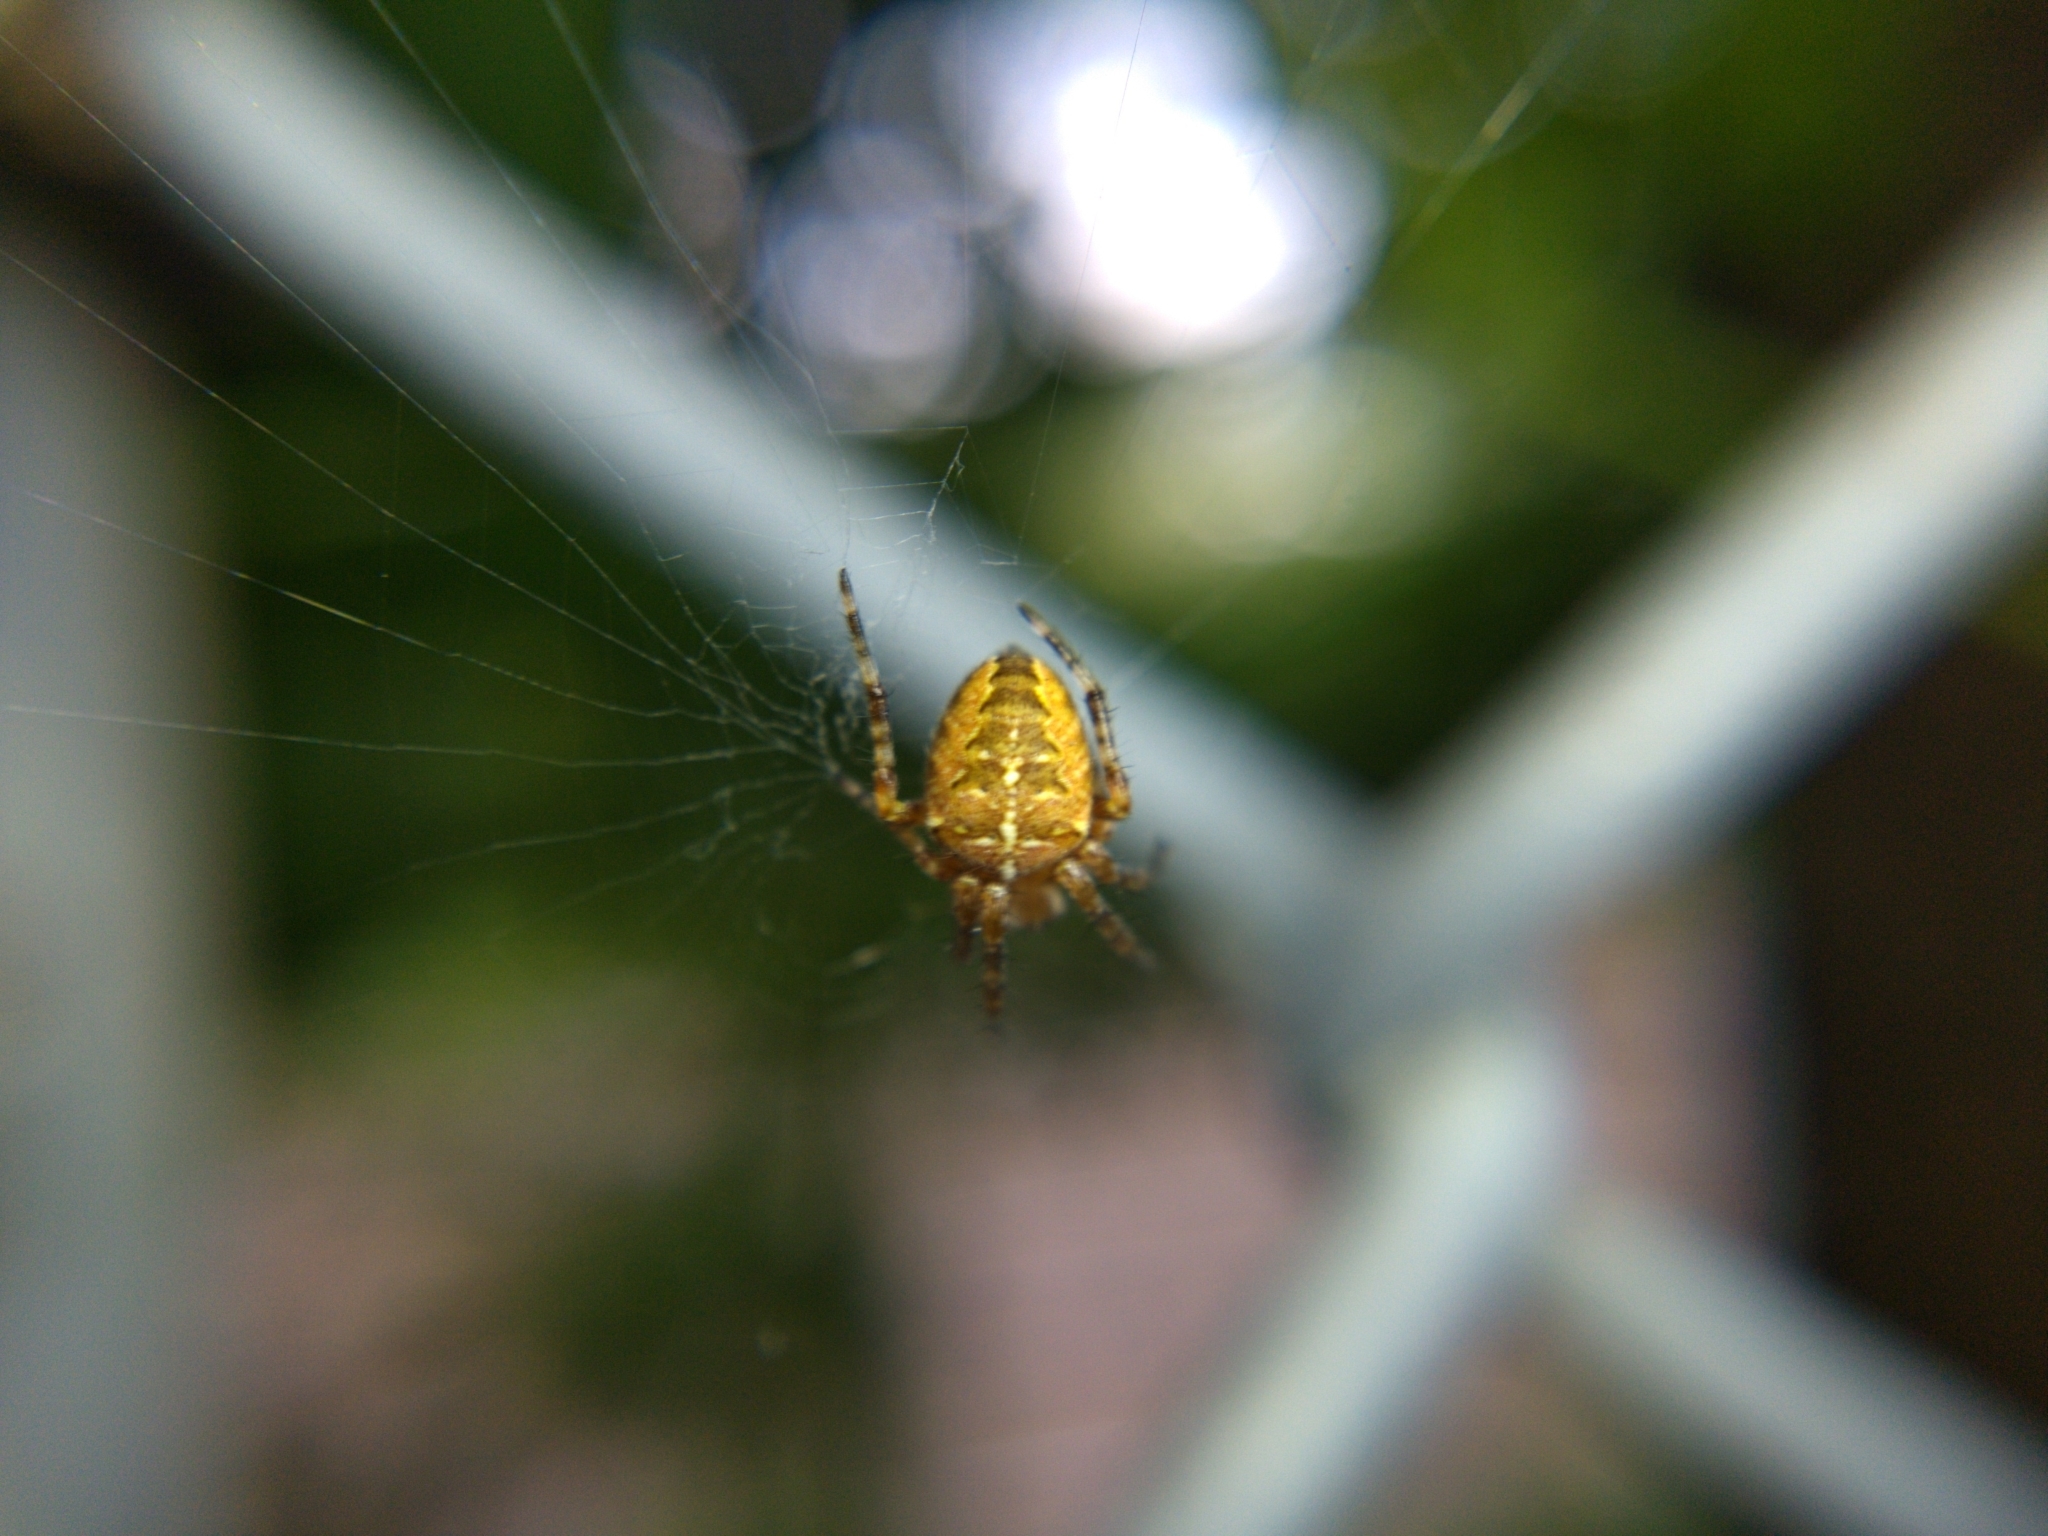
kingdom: Animalia
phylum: Arthropoda
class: Arachnida
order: Araneae
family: Araneidae
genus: Araneus
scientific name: Araneus diadematus
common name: Cross orbweaver
